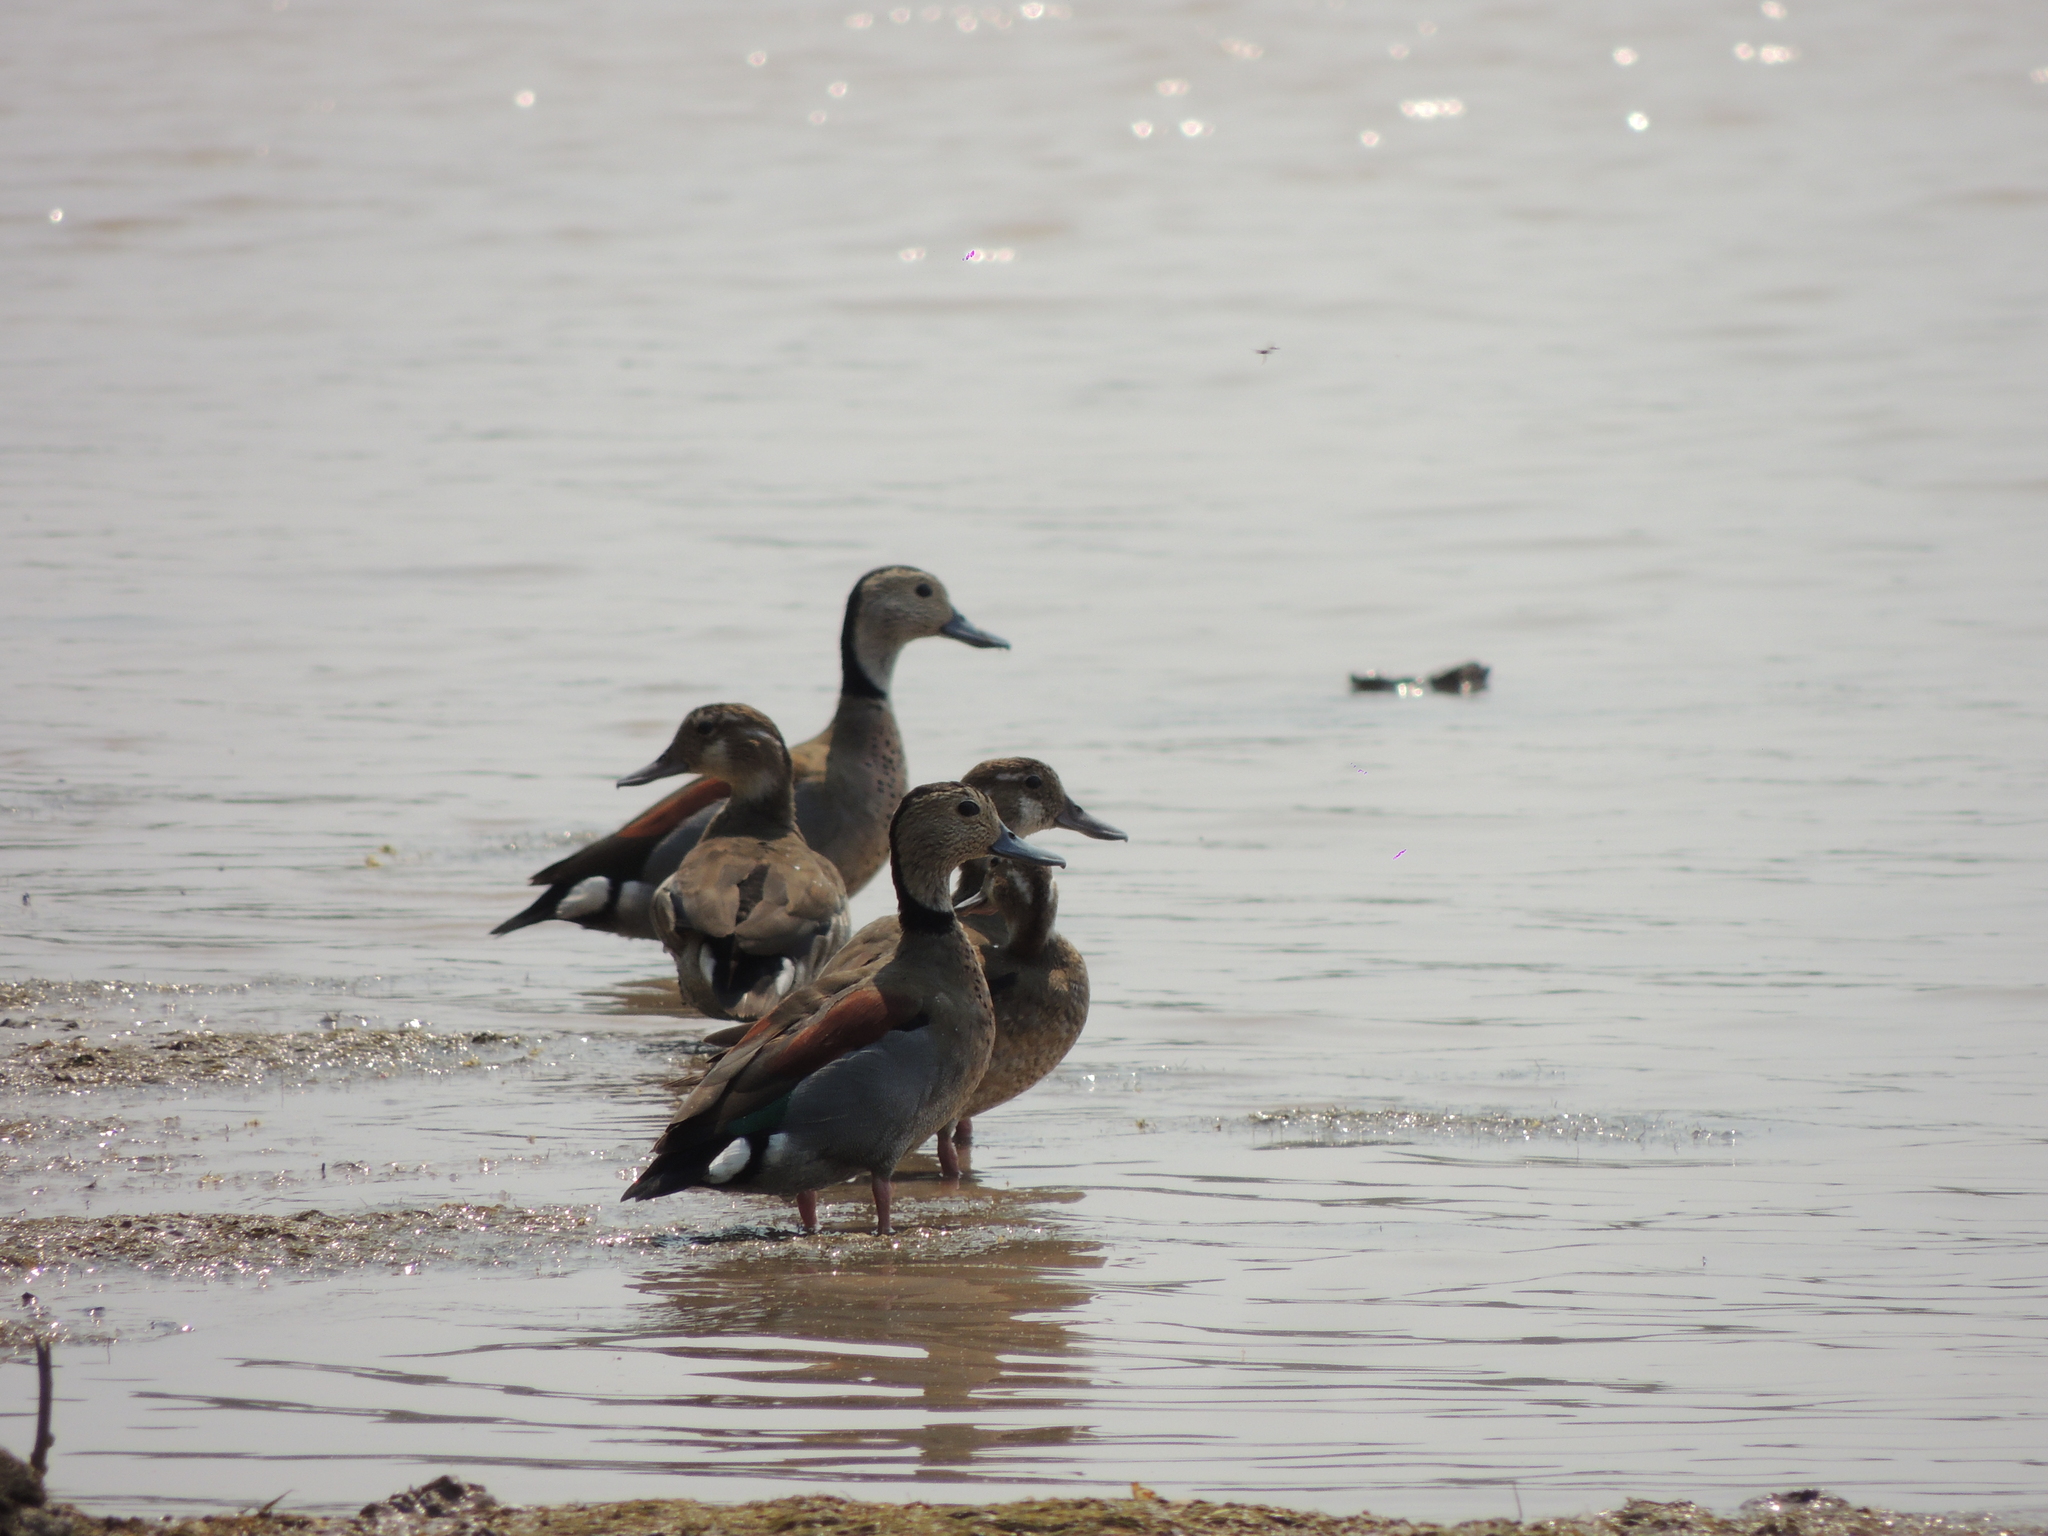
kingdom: Animalia
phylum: Chordata
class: Aves
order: Anseriformes
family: Anatidae
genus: Callonetta
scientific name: Callonetta leucophrys
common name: Ringed teal
